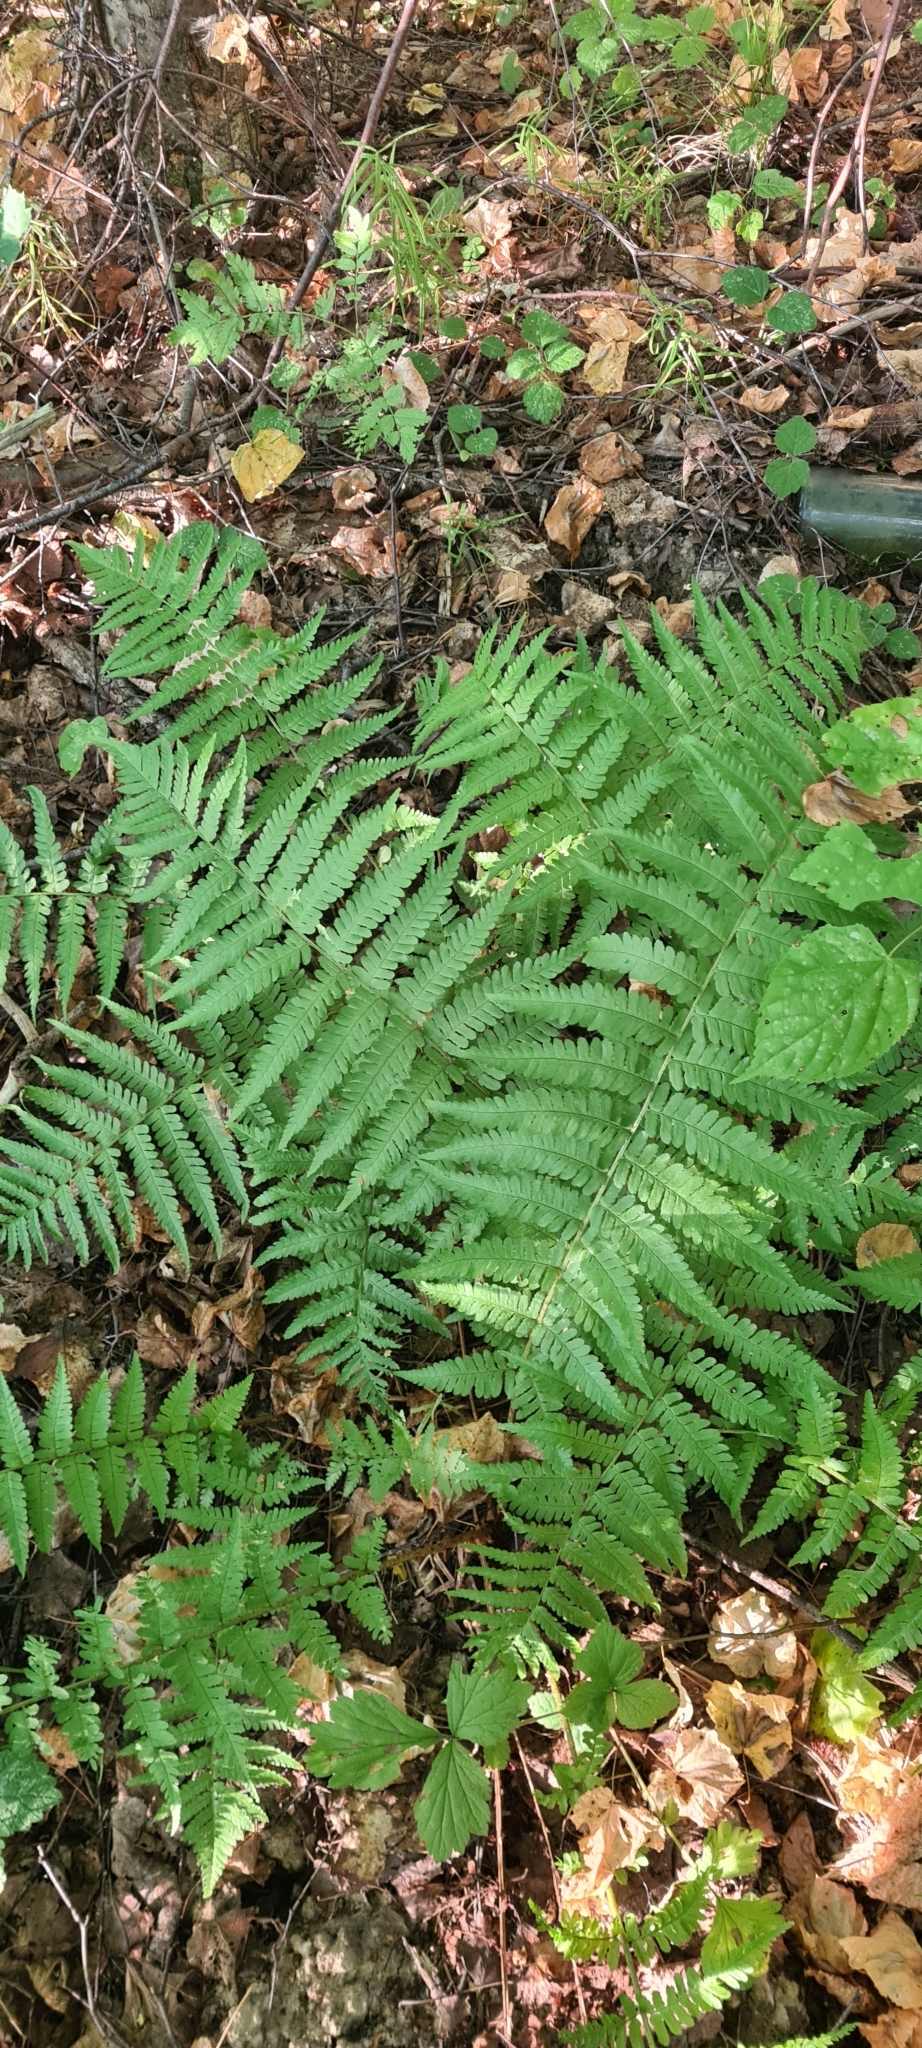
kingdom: Plantae
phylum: Tracheophyta
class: Polypodiopsida
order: Polypodiales
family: Dryopteridaceae
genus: Dryopteris
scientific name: Dryopteris filix-mas
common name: Male fern
